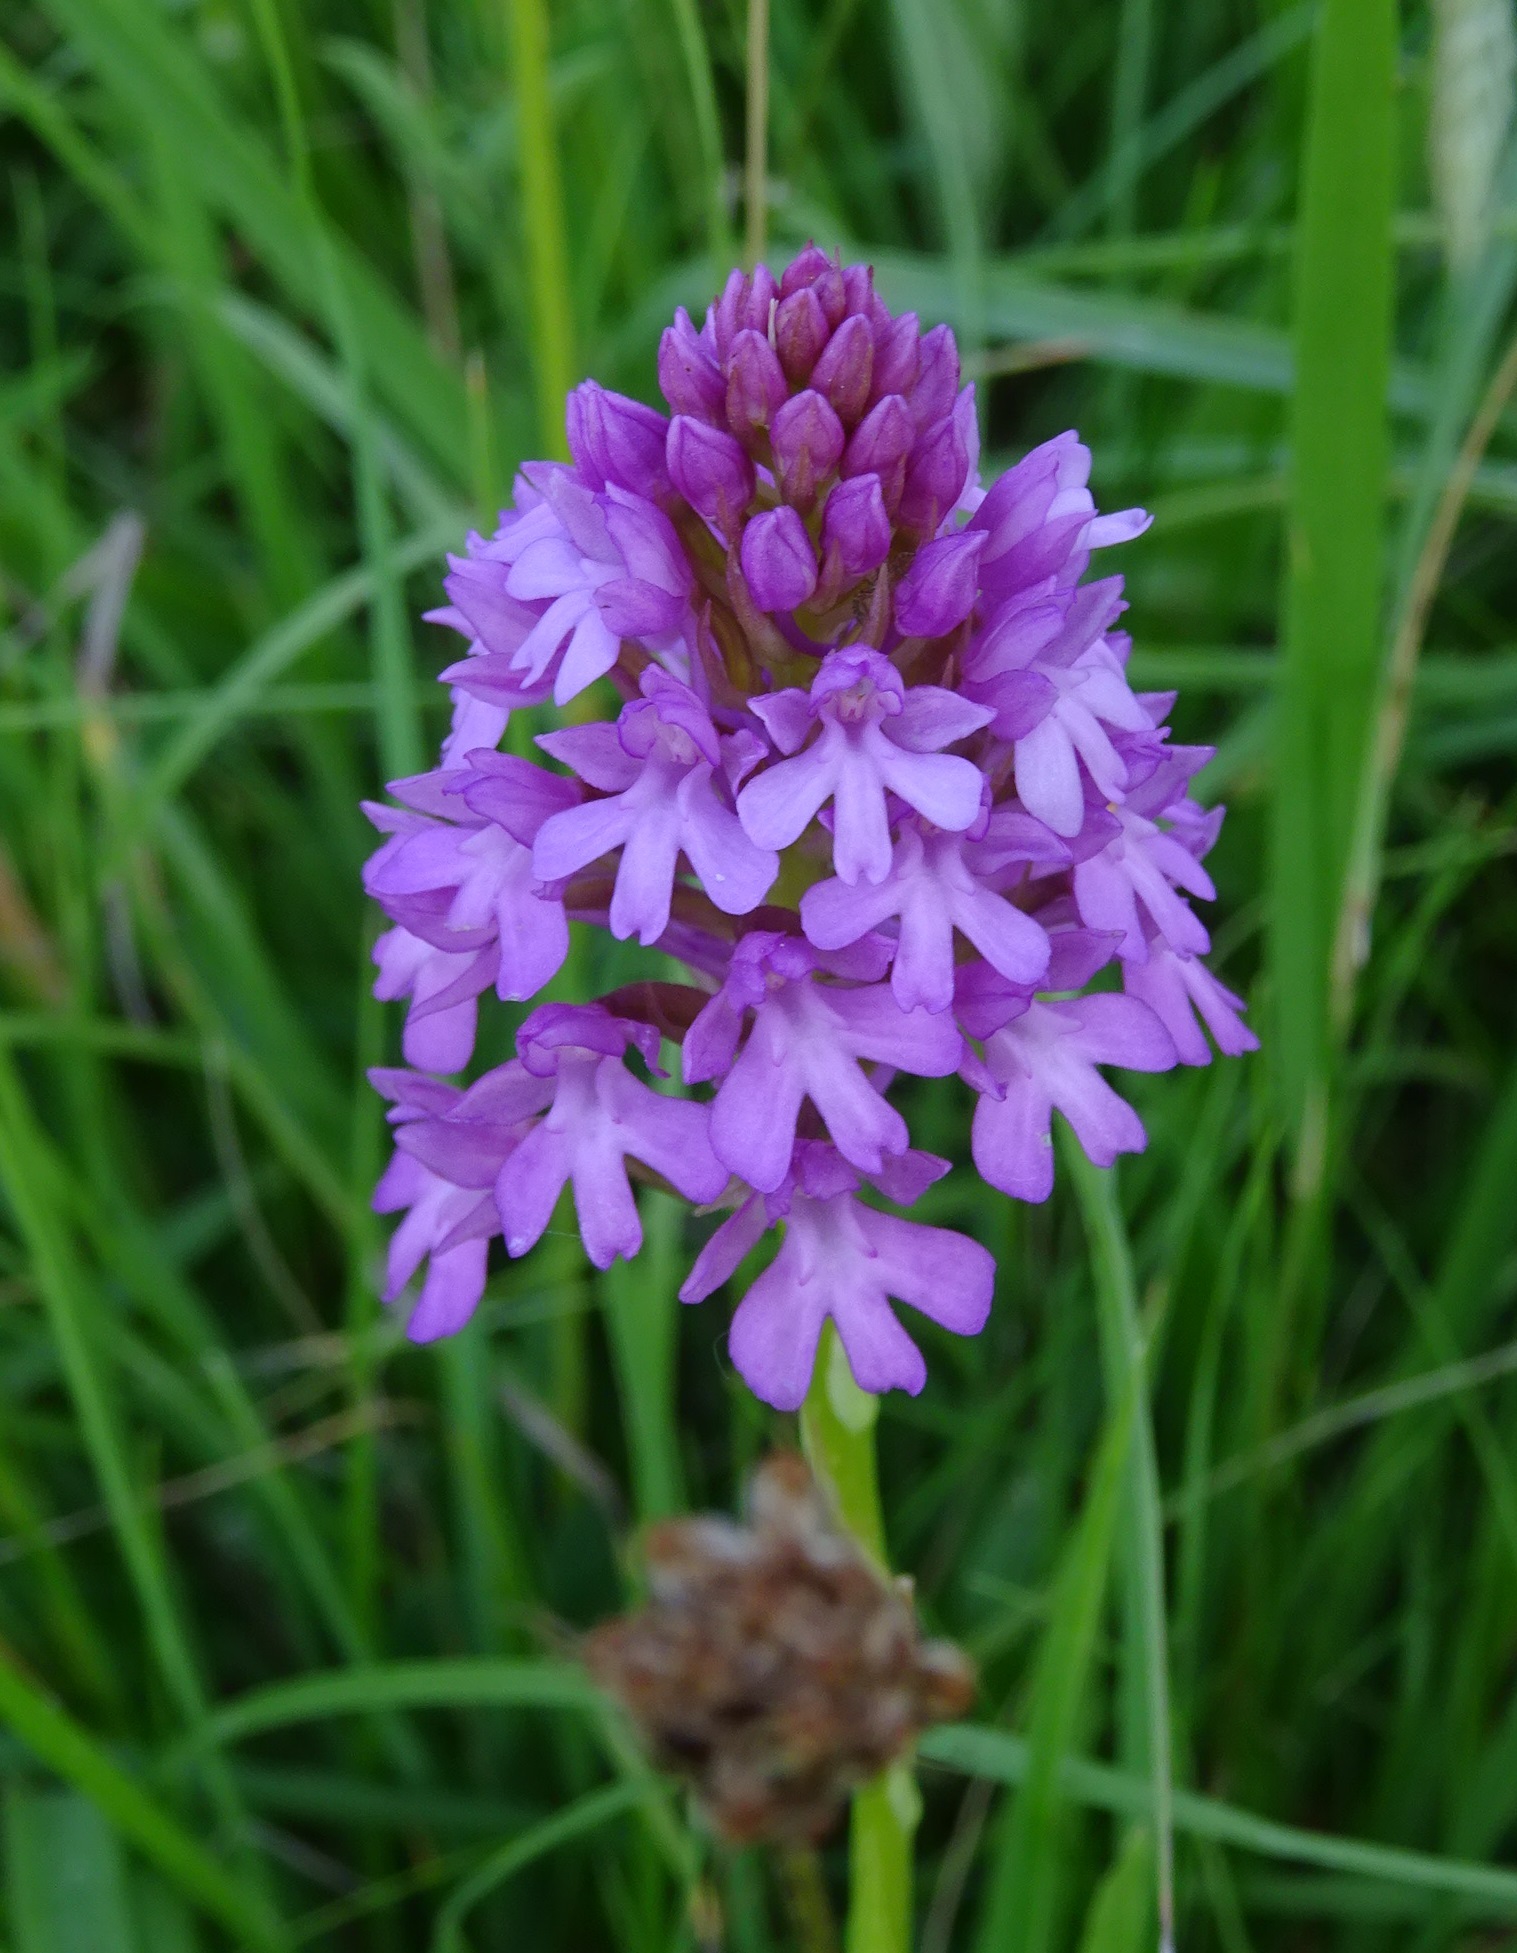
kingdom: Plantae
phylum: Tracheophyta
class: Liliopsida
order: Asparagales
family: Orchidaceae
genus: Anacamptis
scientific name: Anacamptis pyramidalis
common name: Pyramidal orchid
